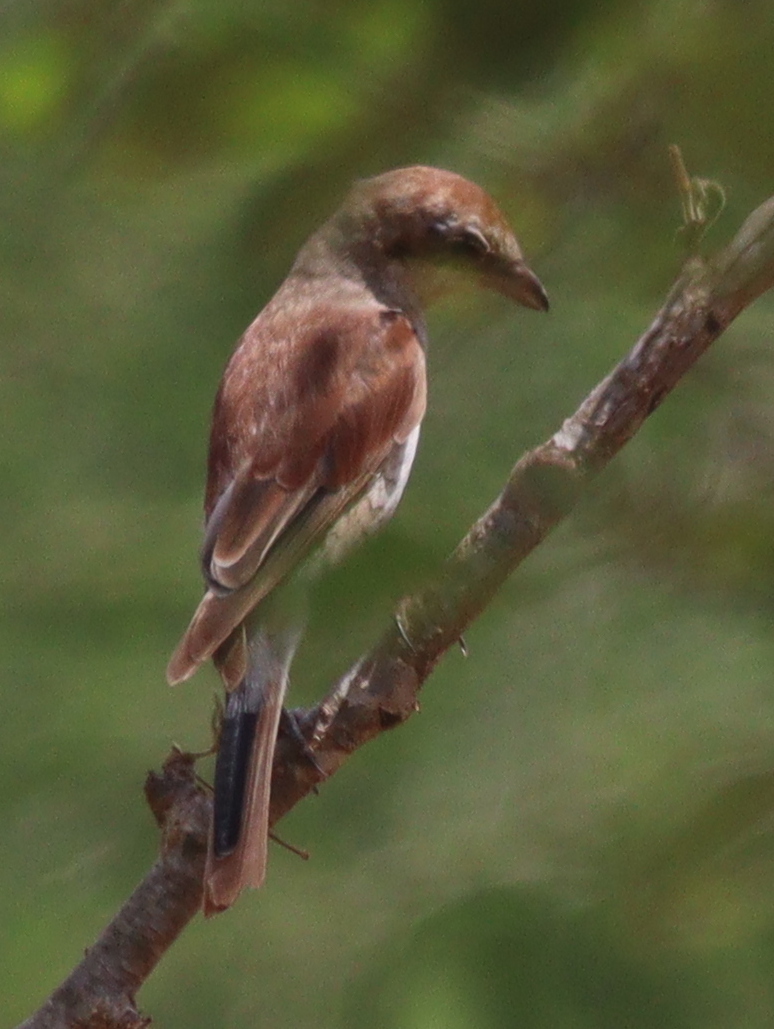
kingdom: Animalia
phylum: Chordata
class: Aves
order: Passeriformes
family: Laniidae
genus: Lanius
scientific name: Lanius collurio
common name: Red-backed shrike
